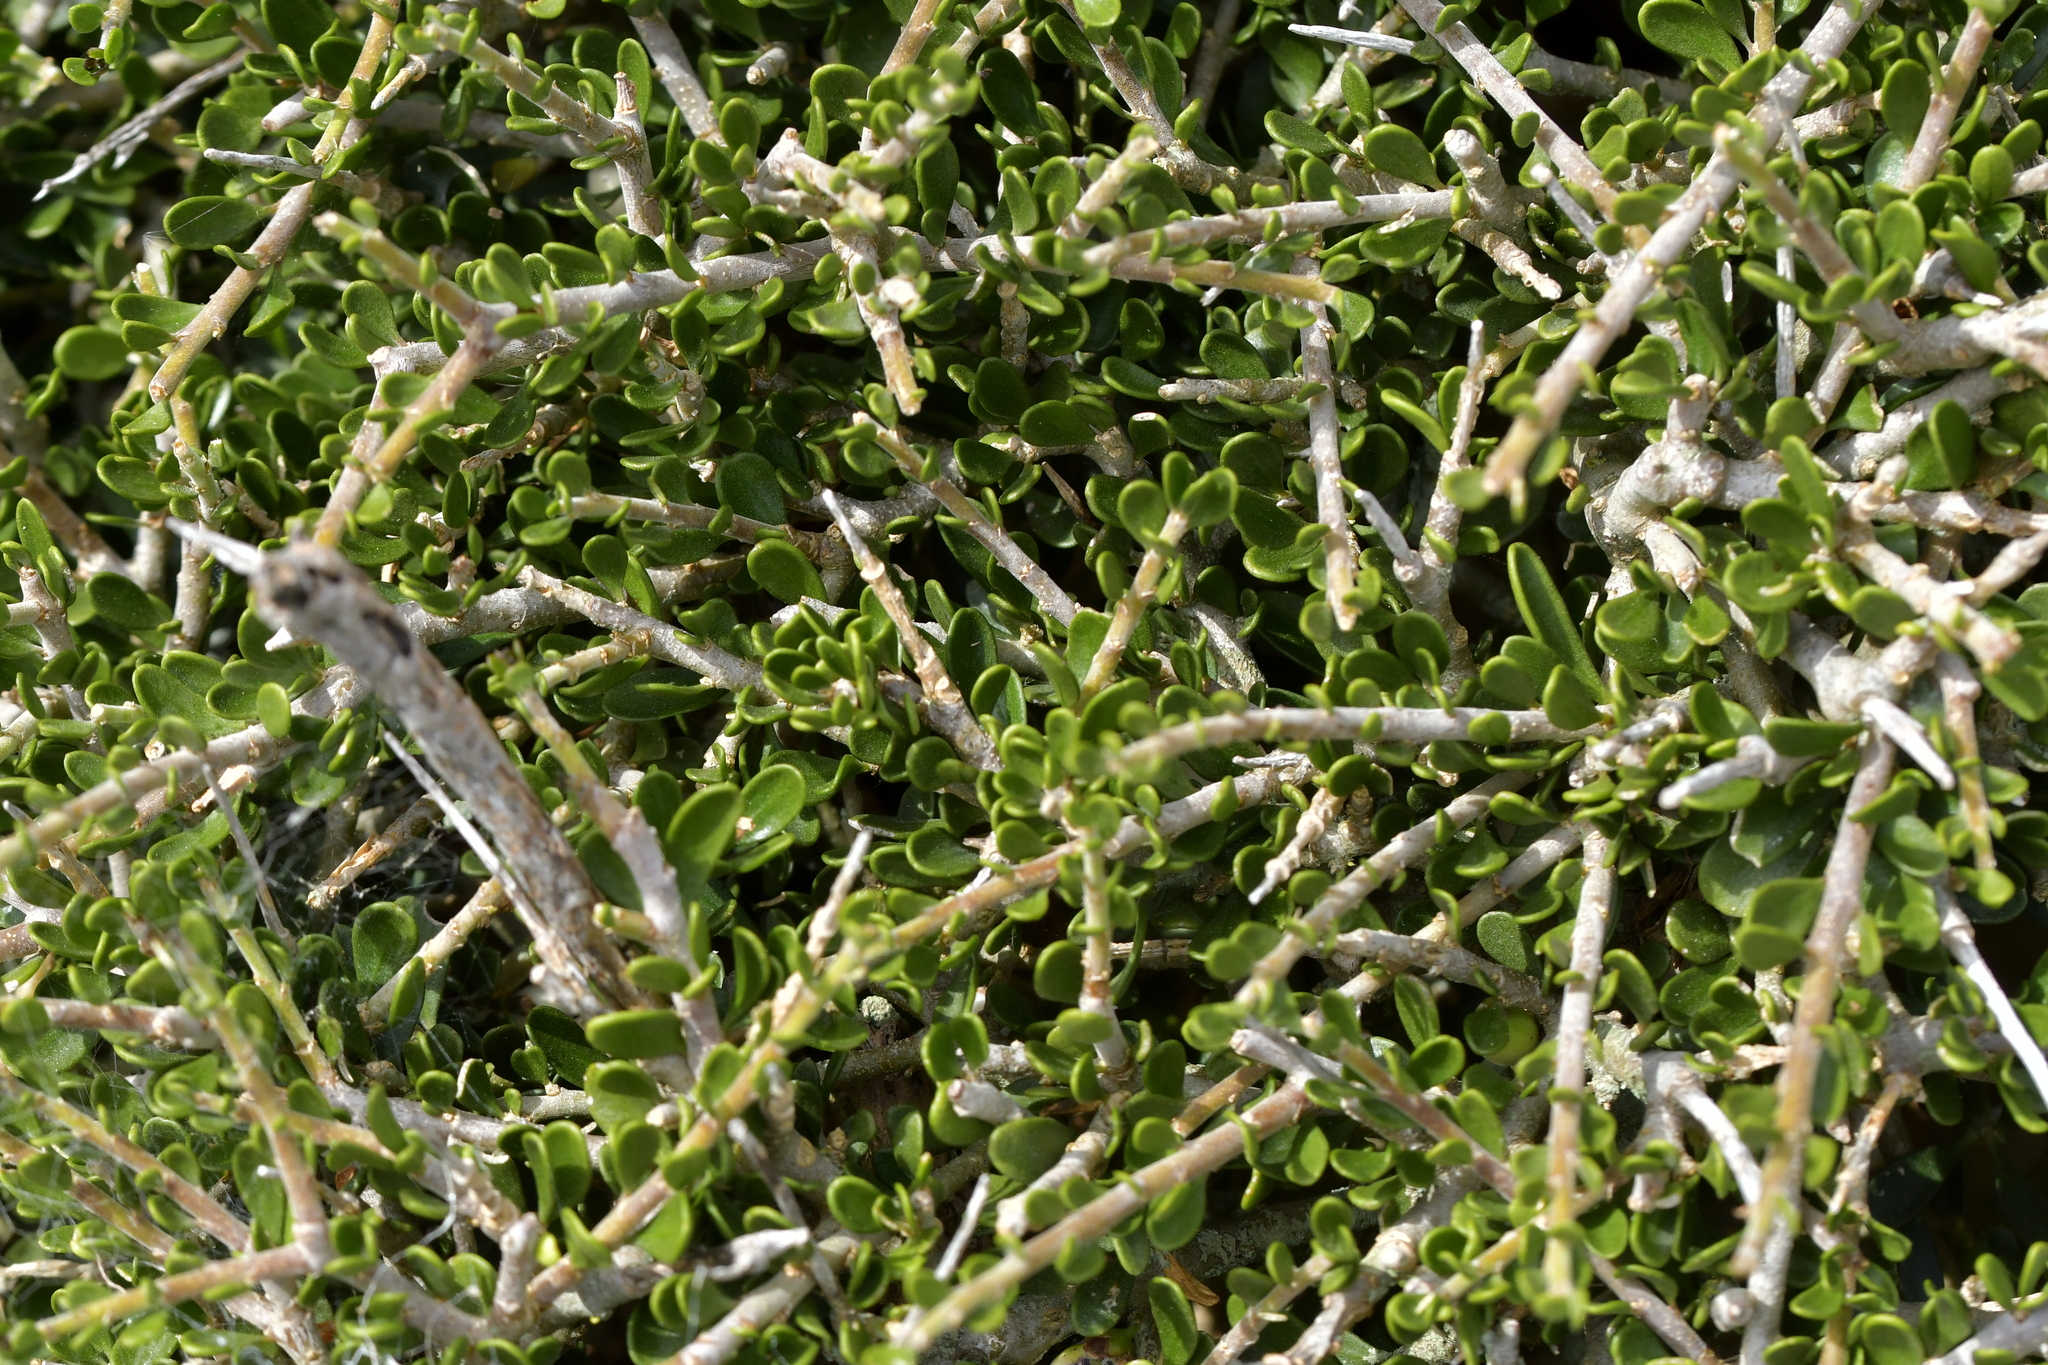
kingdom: Plantae
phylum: Tracheophyta
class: Magnoliopsida
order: Malpighiales
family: Violaceae
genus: Melicytus
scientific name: Melicytus crassifolius
